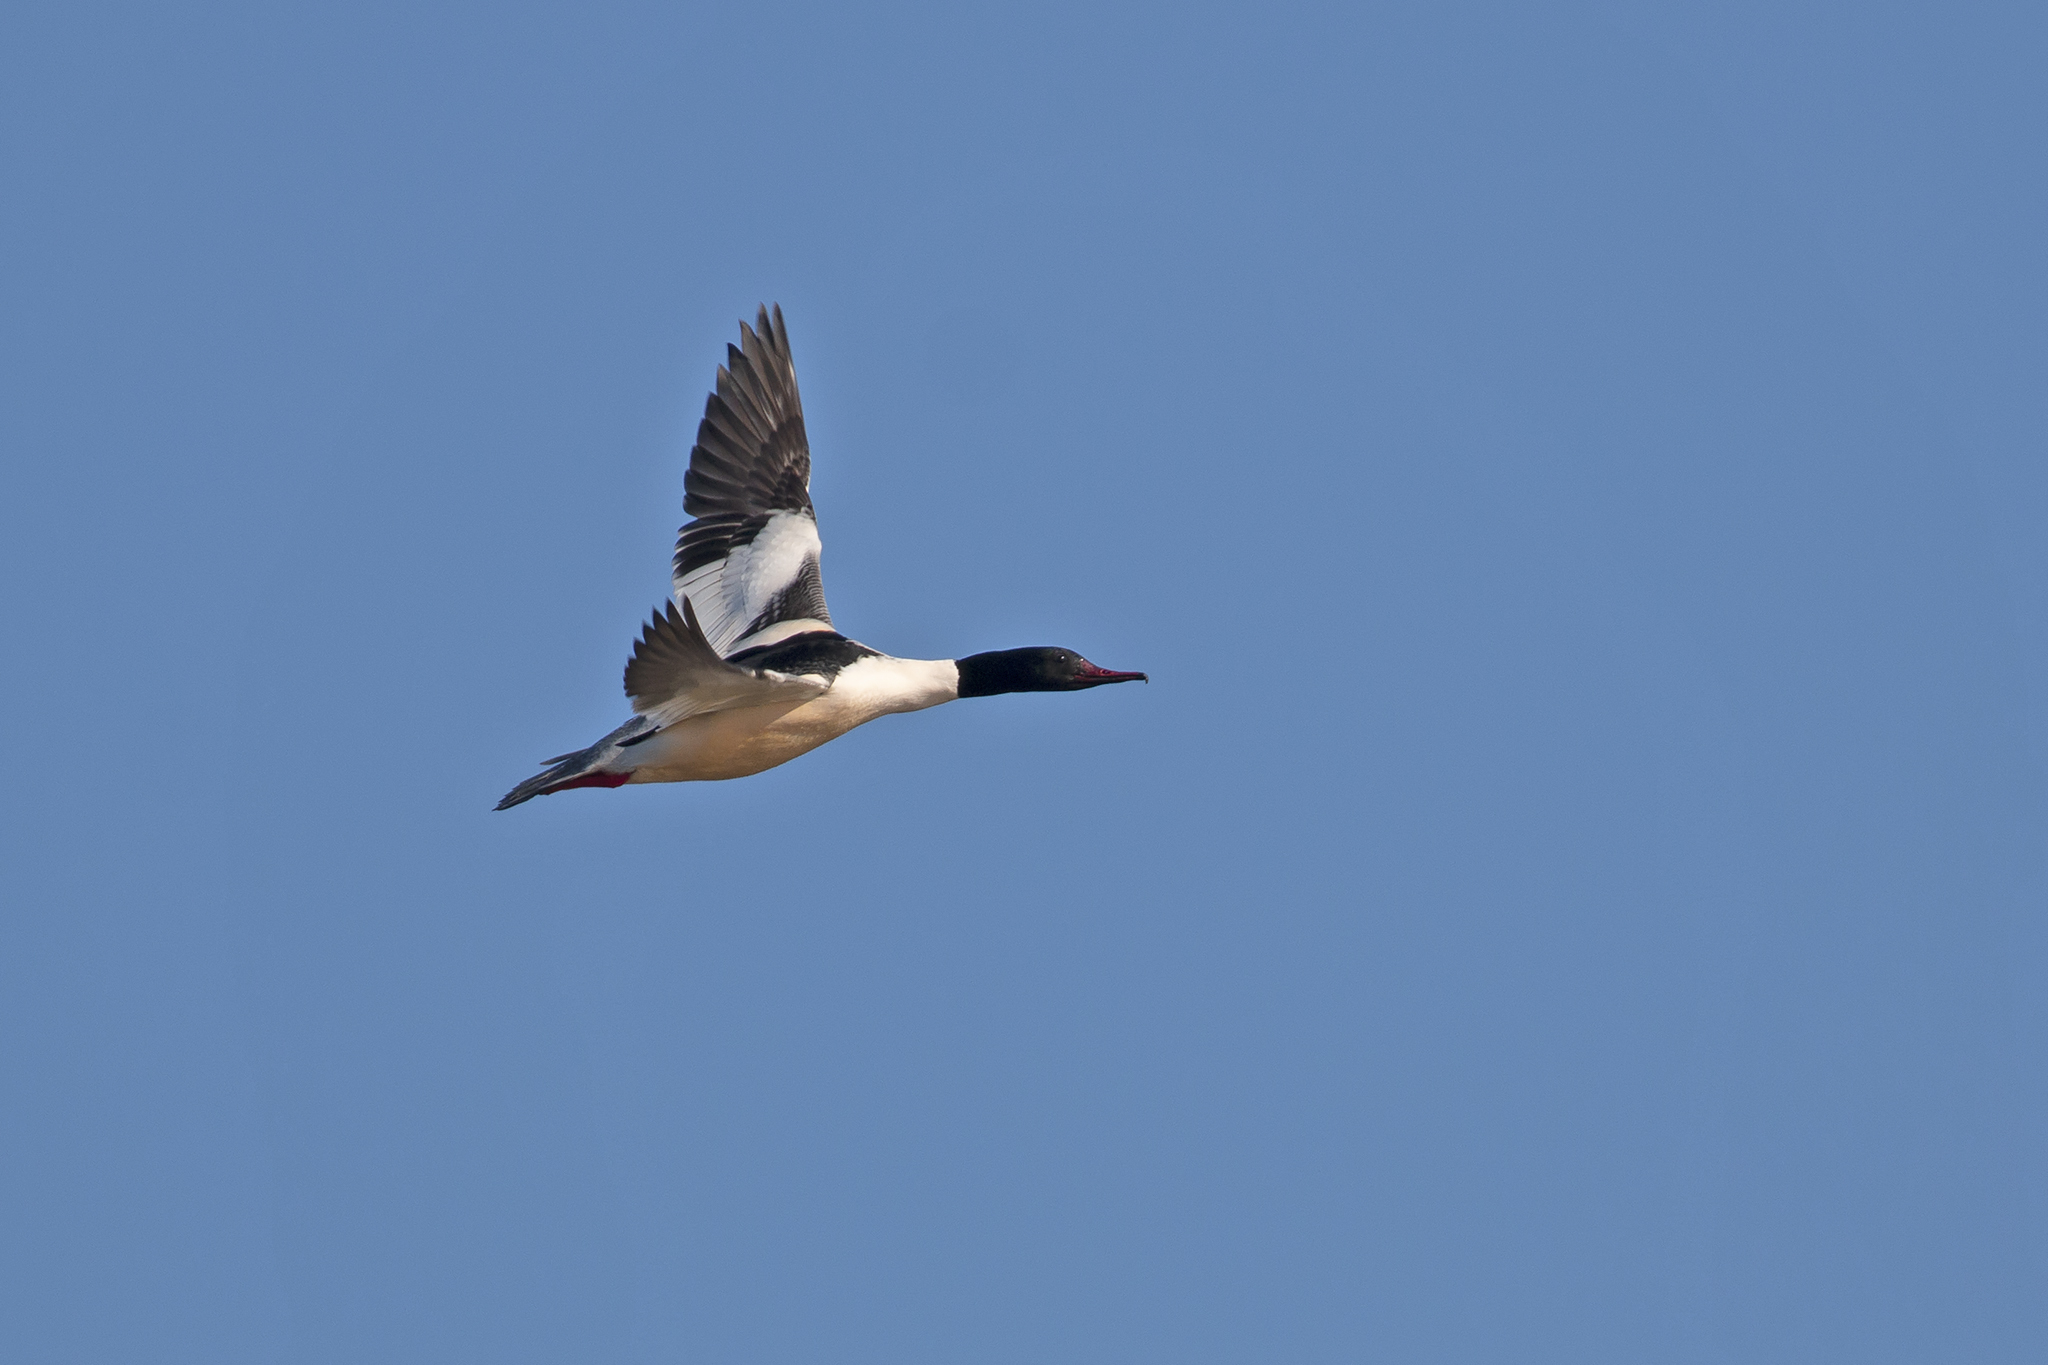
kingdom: Animalia
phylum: Chordata
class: Aves
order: Anseriformes
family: Anatidae
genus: Mergus
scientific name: Mergus merganser
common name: Common merganser
